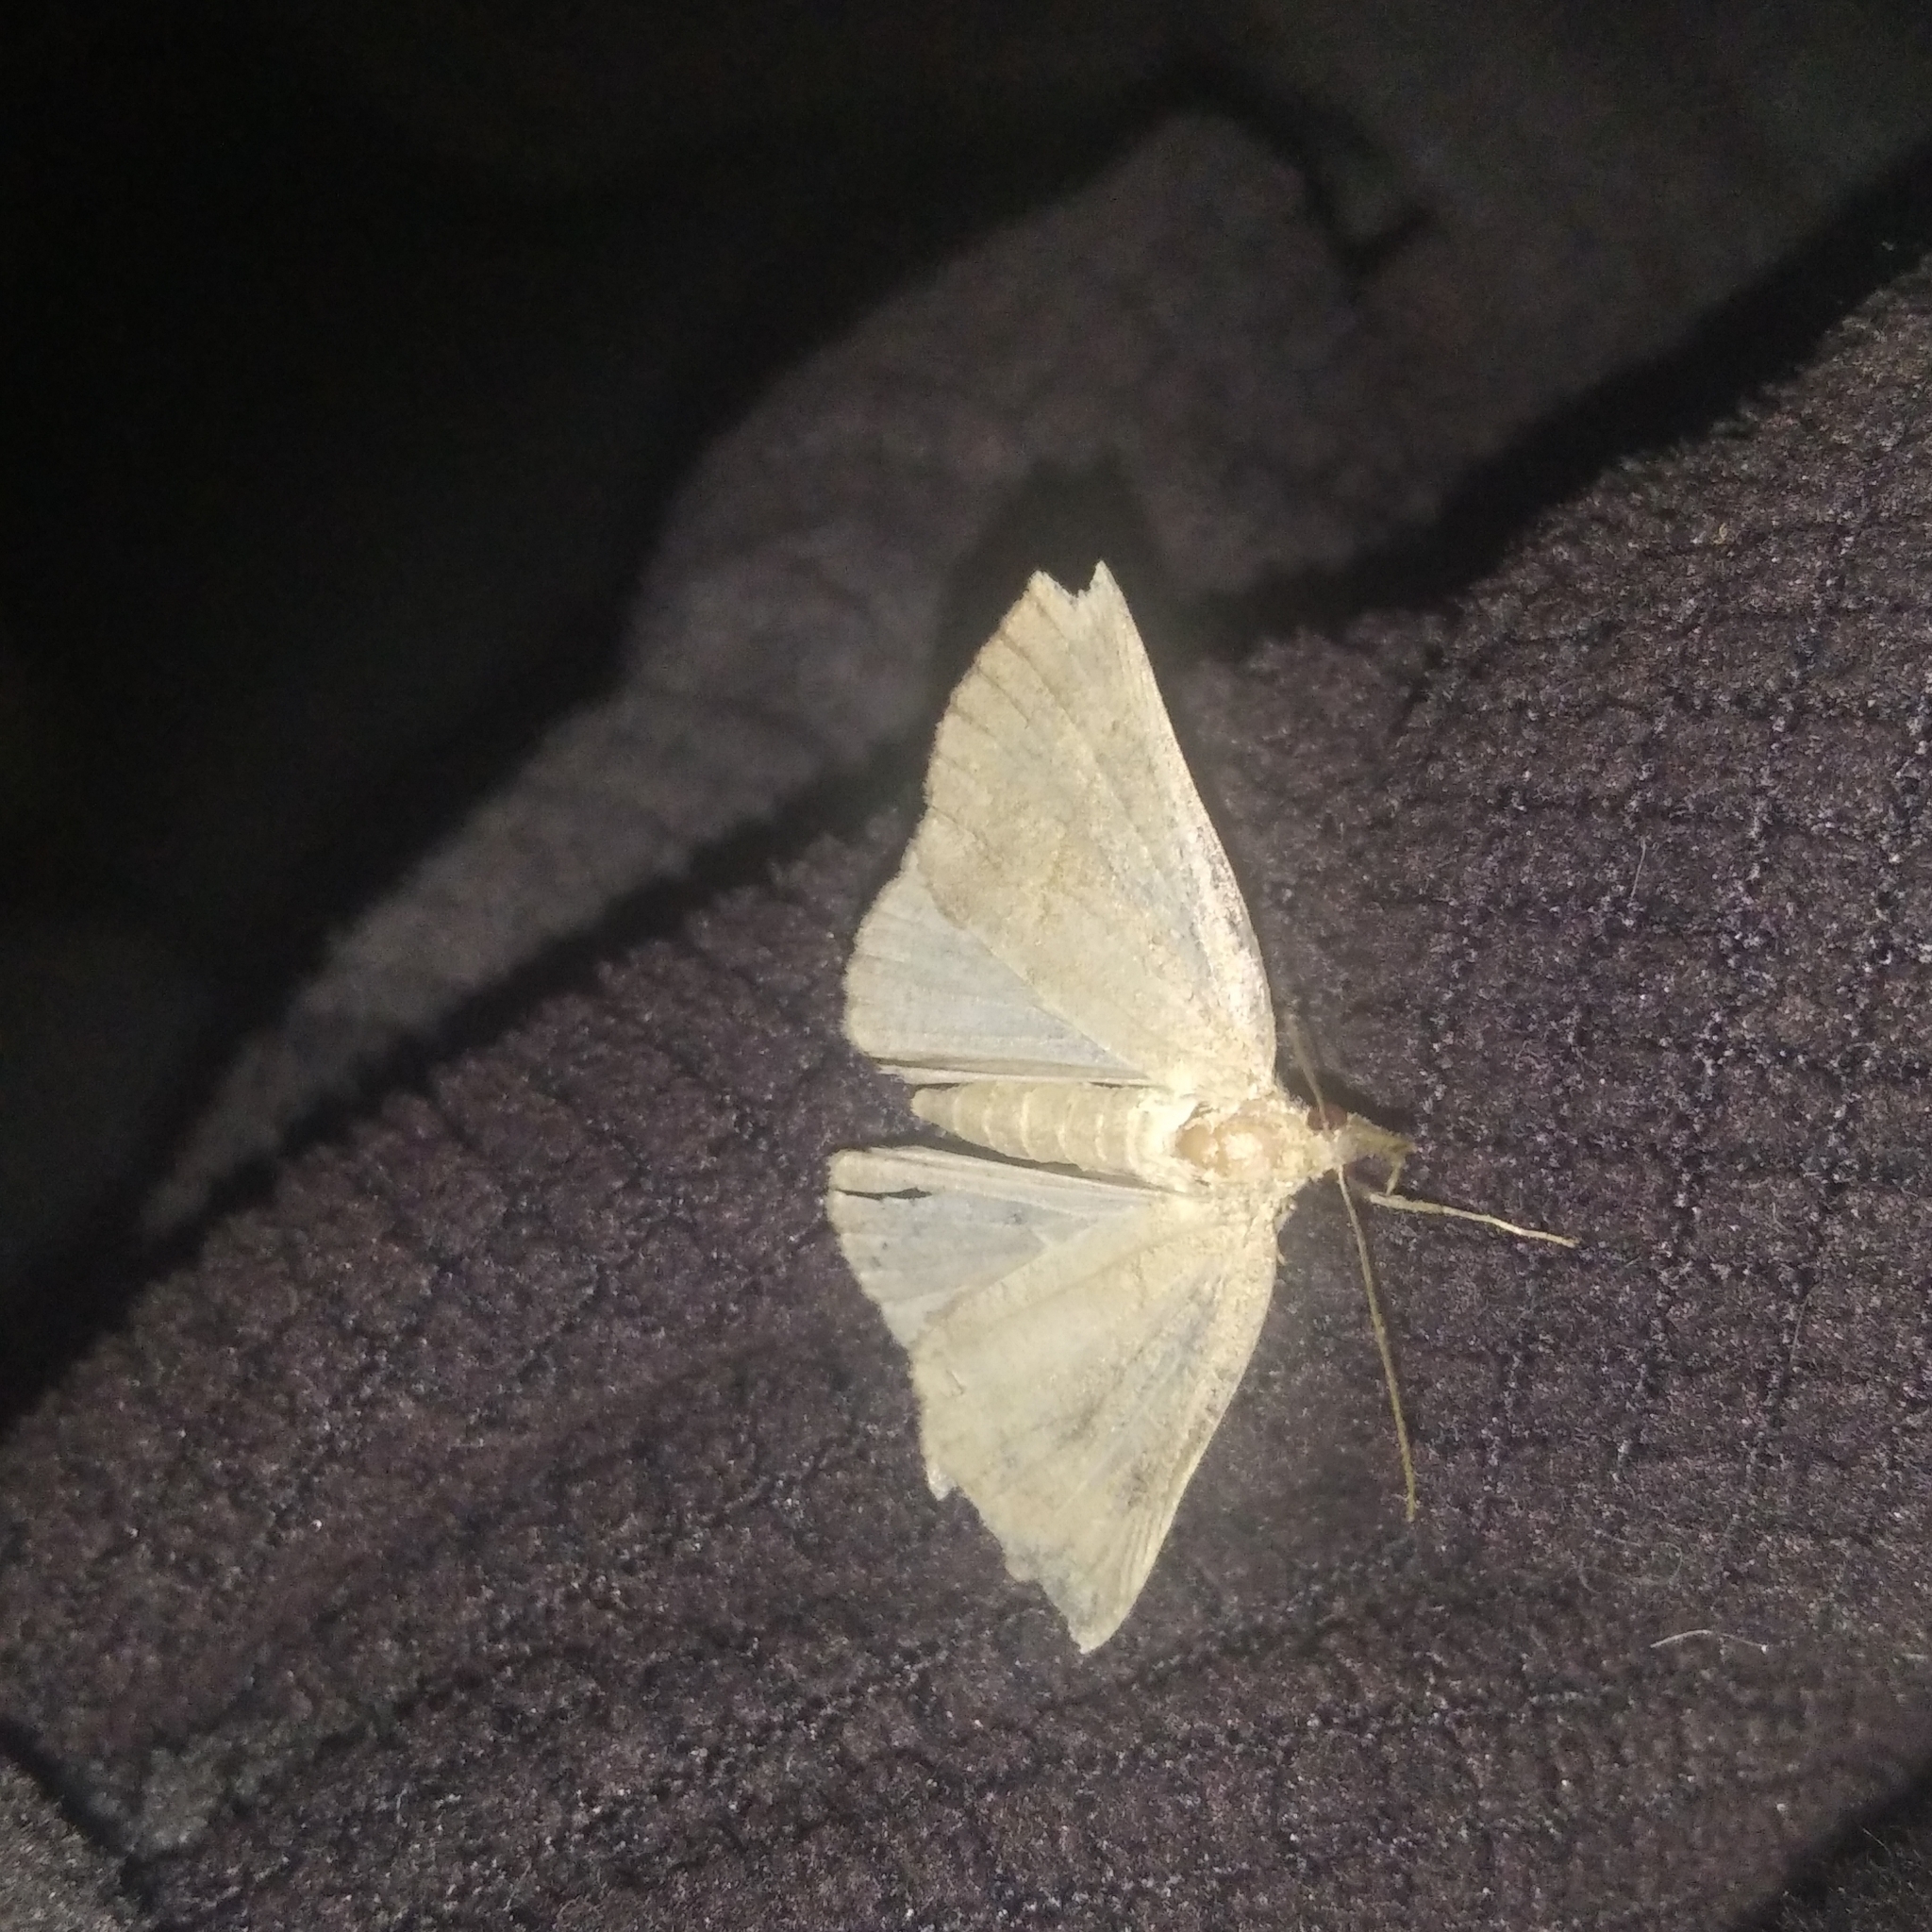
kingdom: Animalia
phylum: Arthropoda
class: Insecta
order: Lepidoptera
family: Erebidae
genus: Hypena
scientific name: Hypena proboscidalis
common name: Snout
